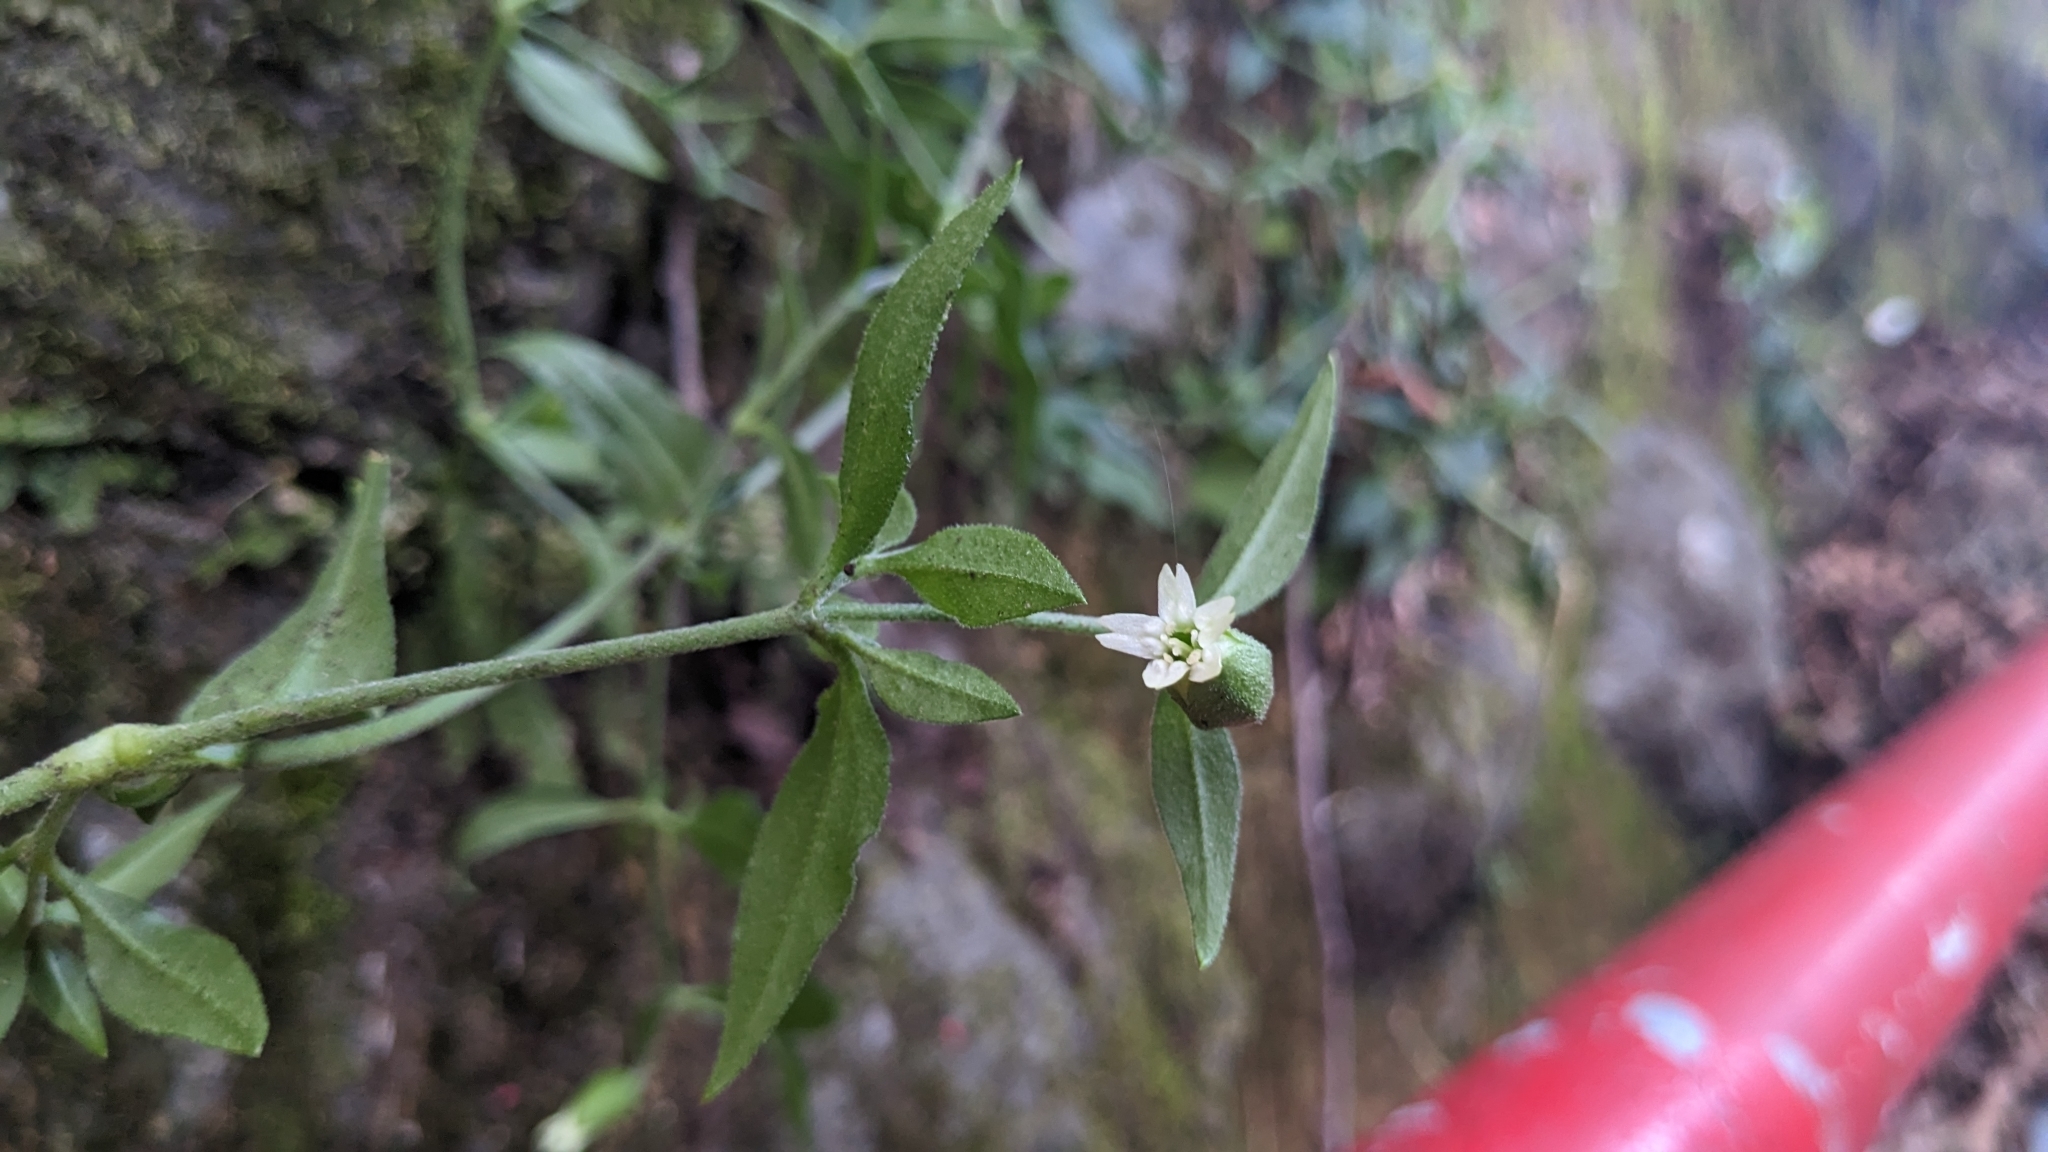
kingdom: Plantae
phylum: Tracheophyta
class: Magnoliopsida
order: Caryophyllales
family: Caryophyllaceae
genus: Silene
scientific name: Silene baccifera
